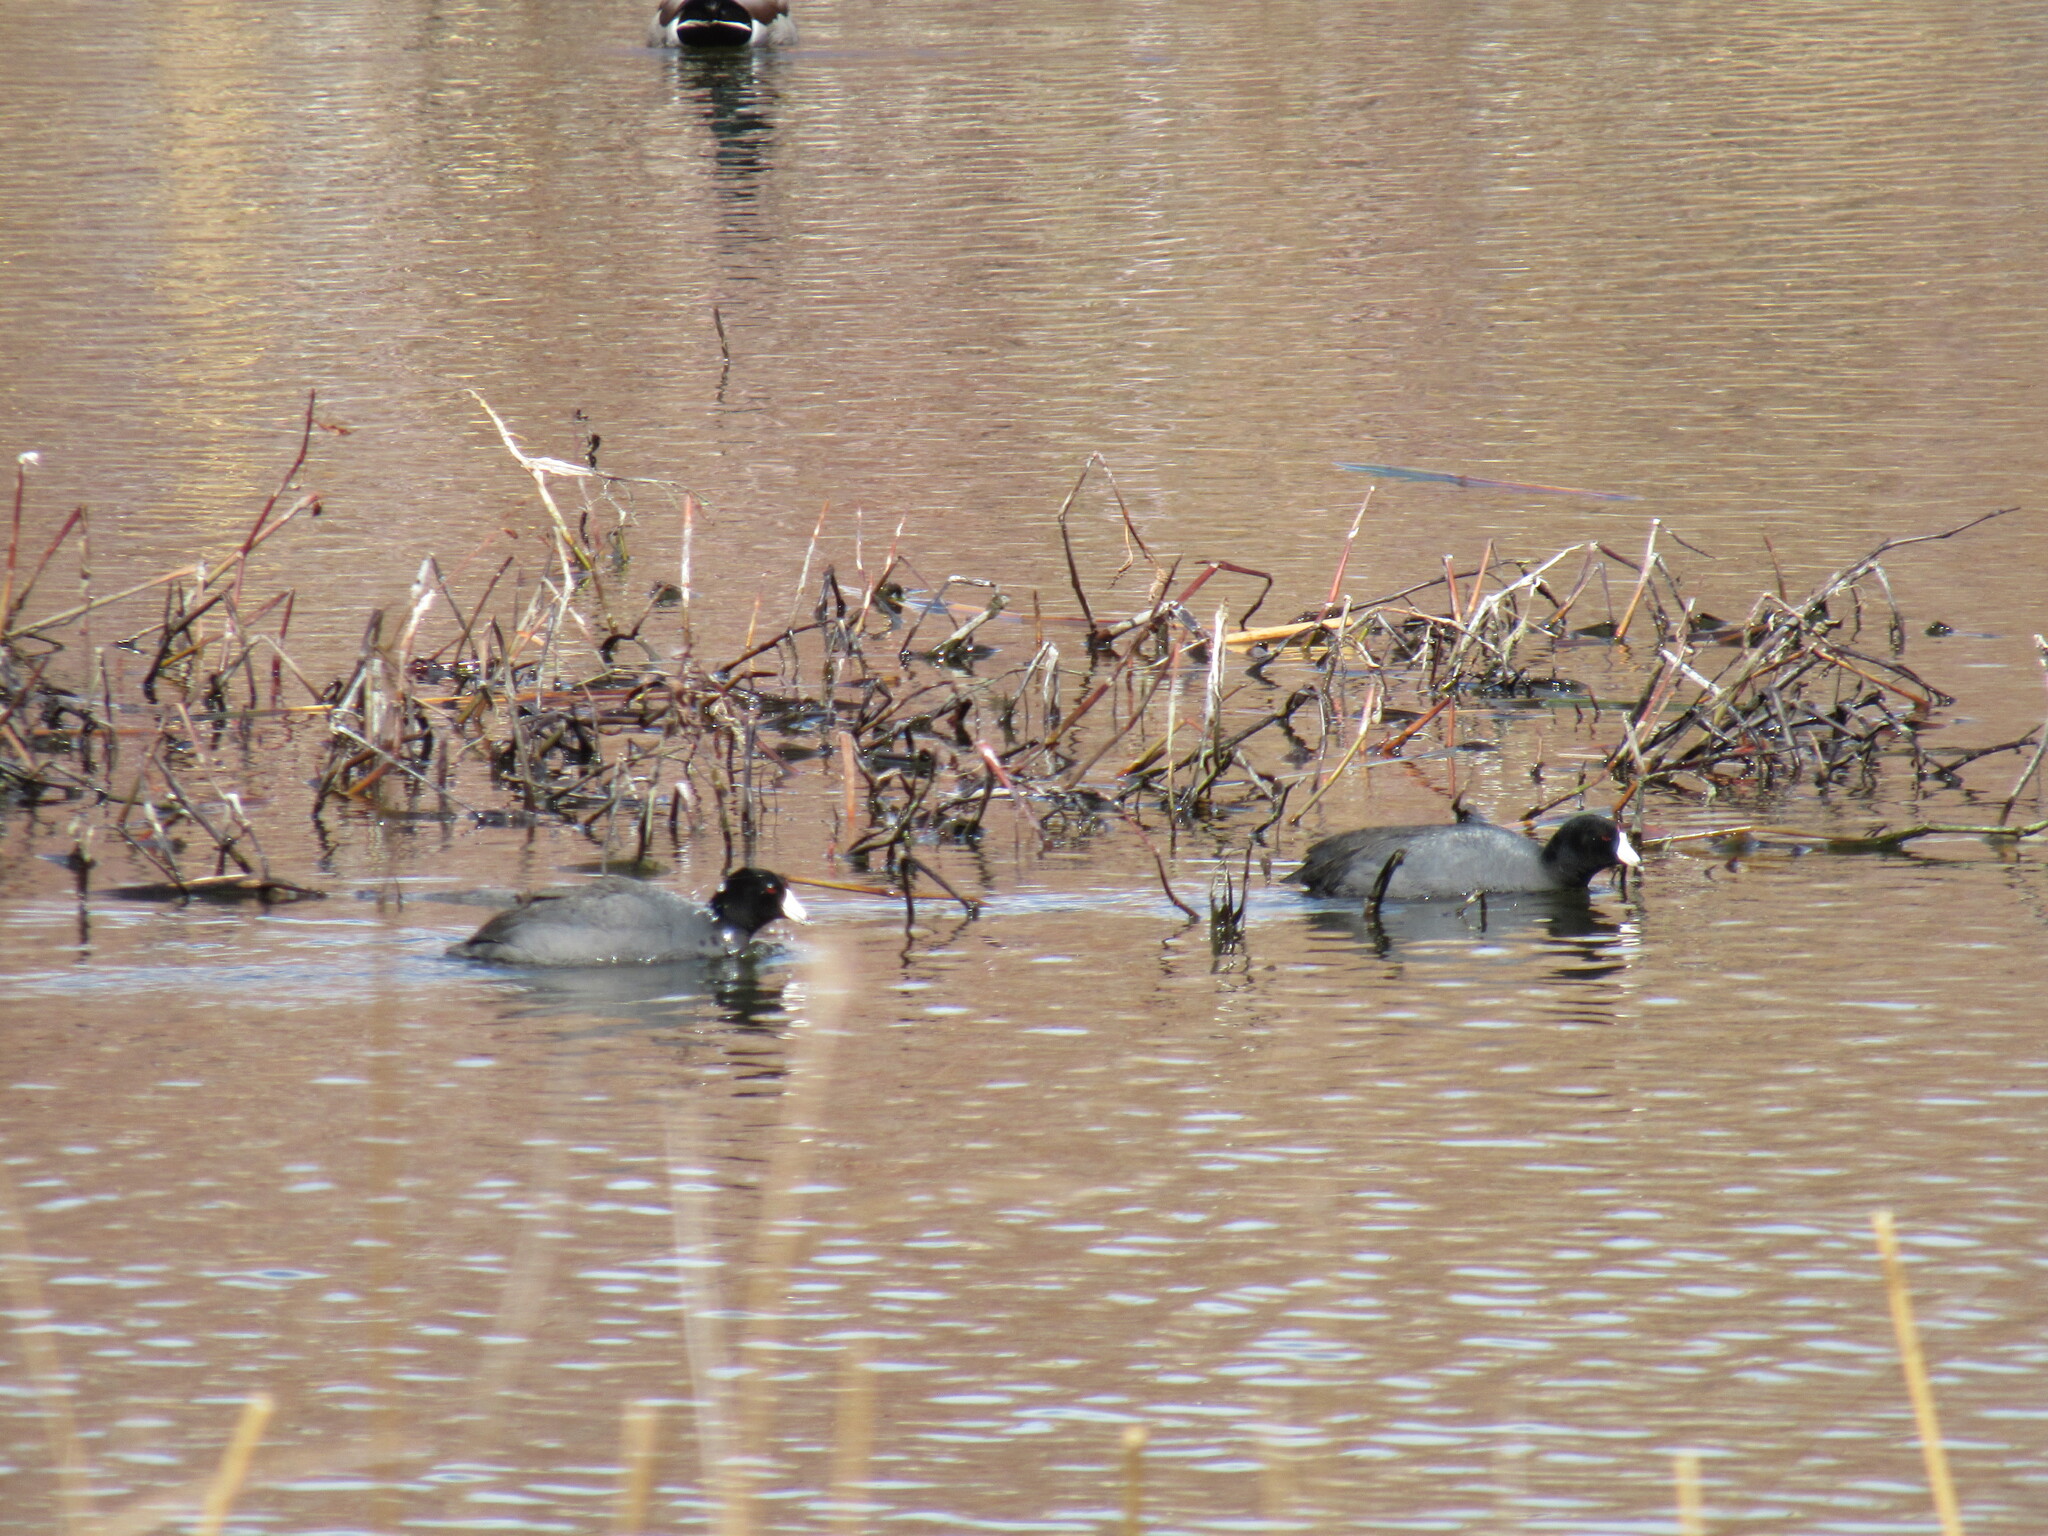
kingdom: Animalia
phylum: Chordata
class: Aves
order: Gruiformes
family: Rallidae
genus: Fulica
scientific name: Fulica americana
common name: American coot
